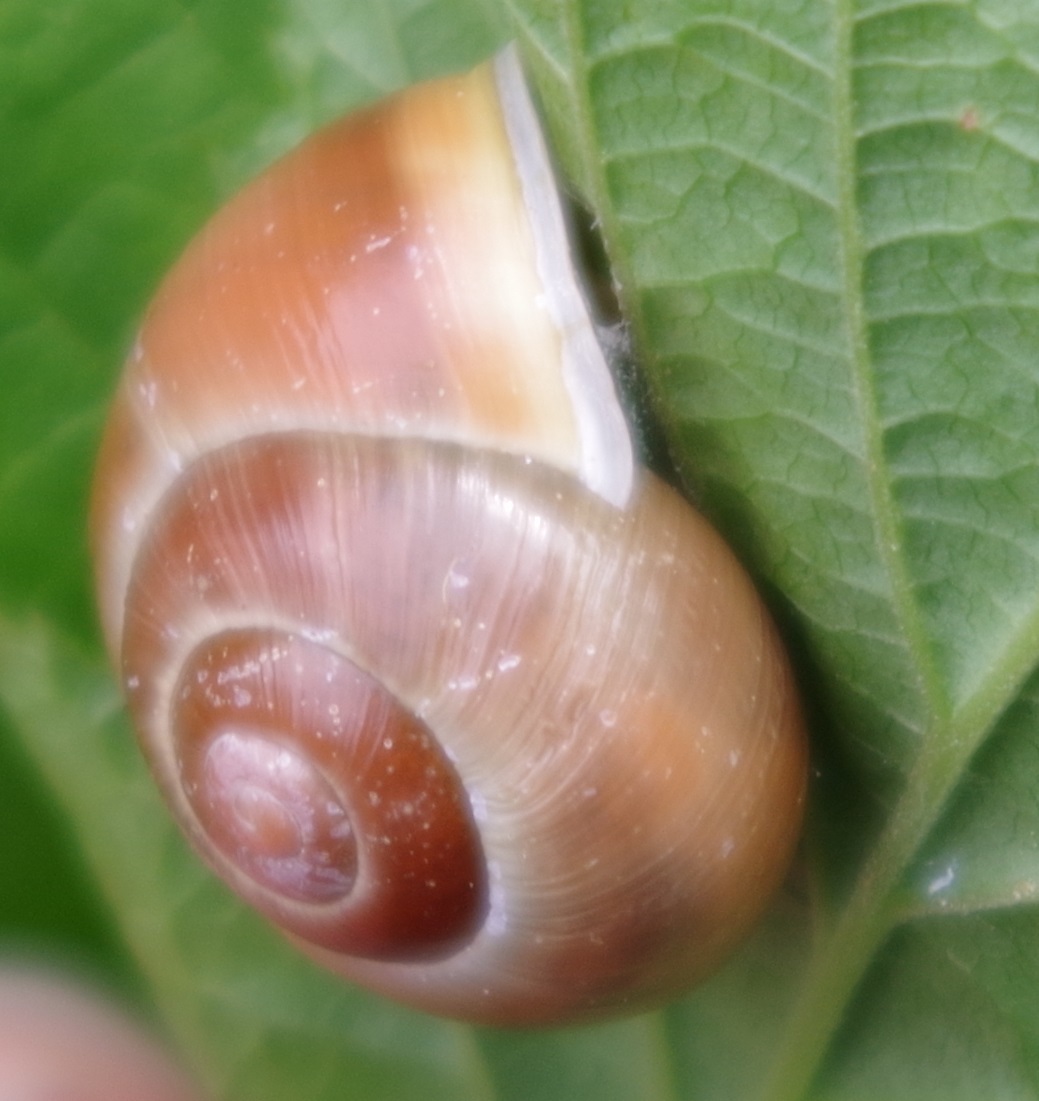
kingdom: Animalia
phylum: Mollusca
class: Gastropoda
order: Stylommatophora
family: Helicidae
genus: Cepaea
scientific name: Cepaea hortensis
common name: White-lip gardensnail
